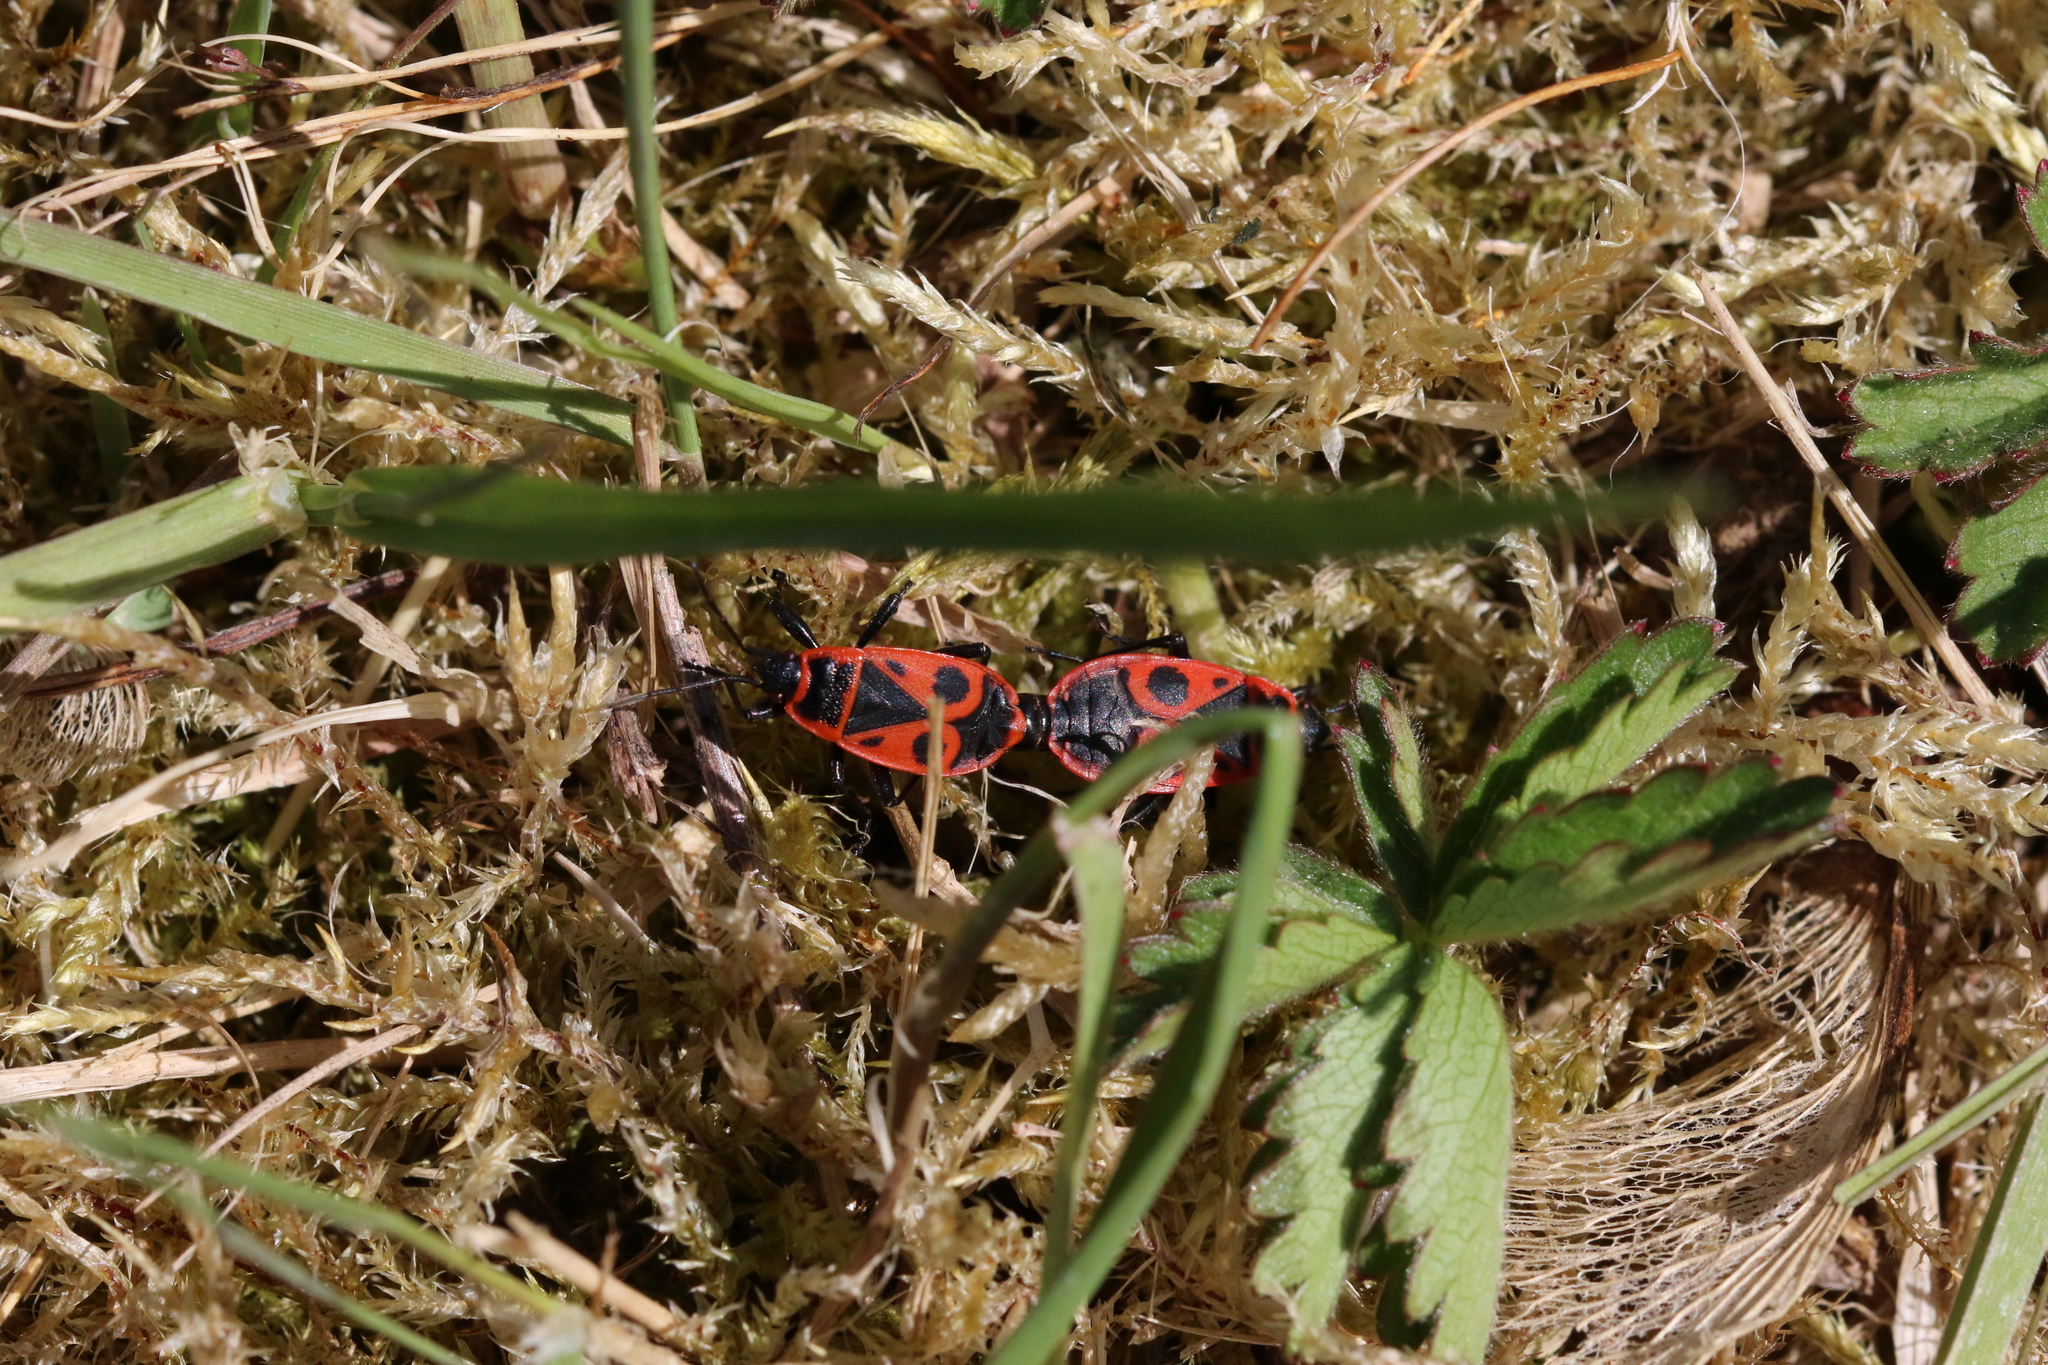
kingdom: Animalia
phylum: Arthropoda
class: Insecta
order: Hemiptera
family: Pyrrhocoridae
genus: Pyrrhocoris
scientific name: Pyrrhocoris apterus
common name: Firebug
